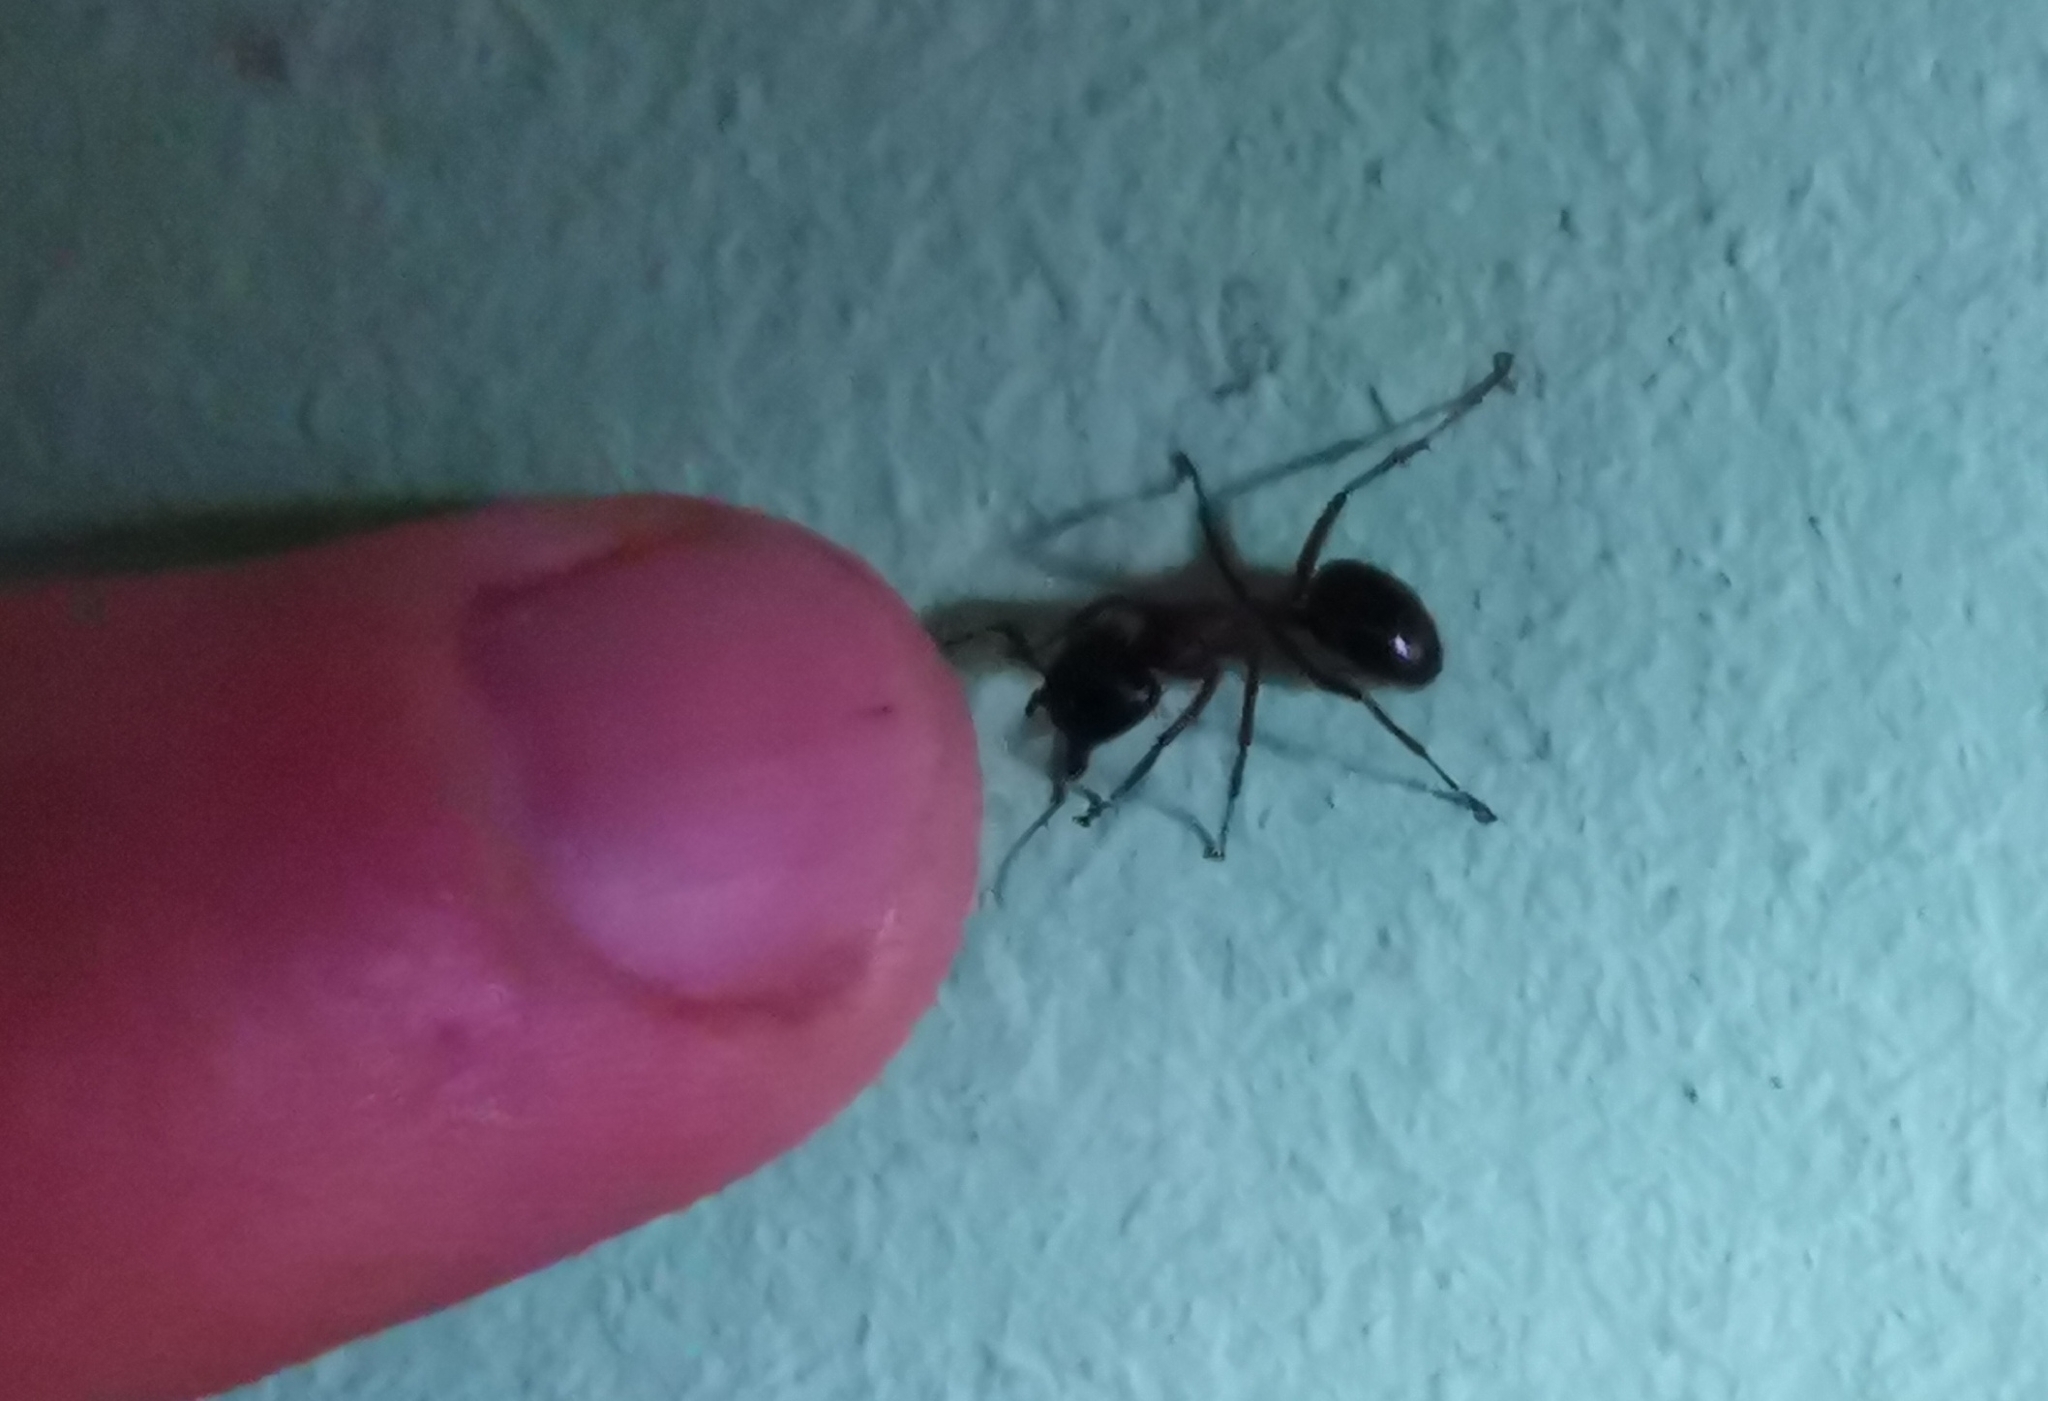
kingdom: Animalia
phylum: Arthropoda
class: Insecta
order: Hymenoptera
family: Formicidae
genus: Camponotus
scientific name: Camponotus herculeanus
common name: Hercules ant
